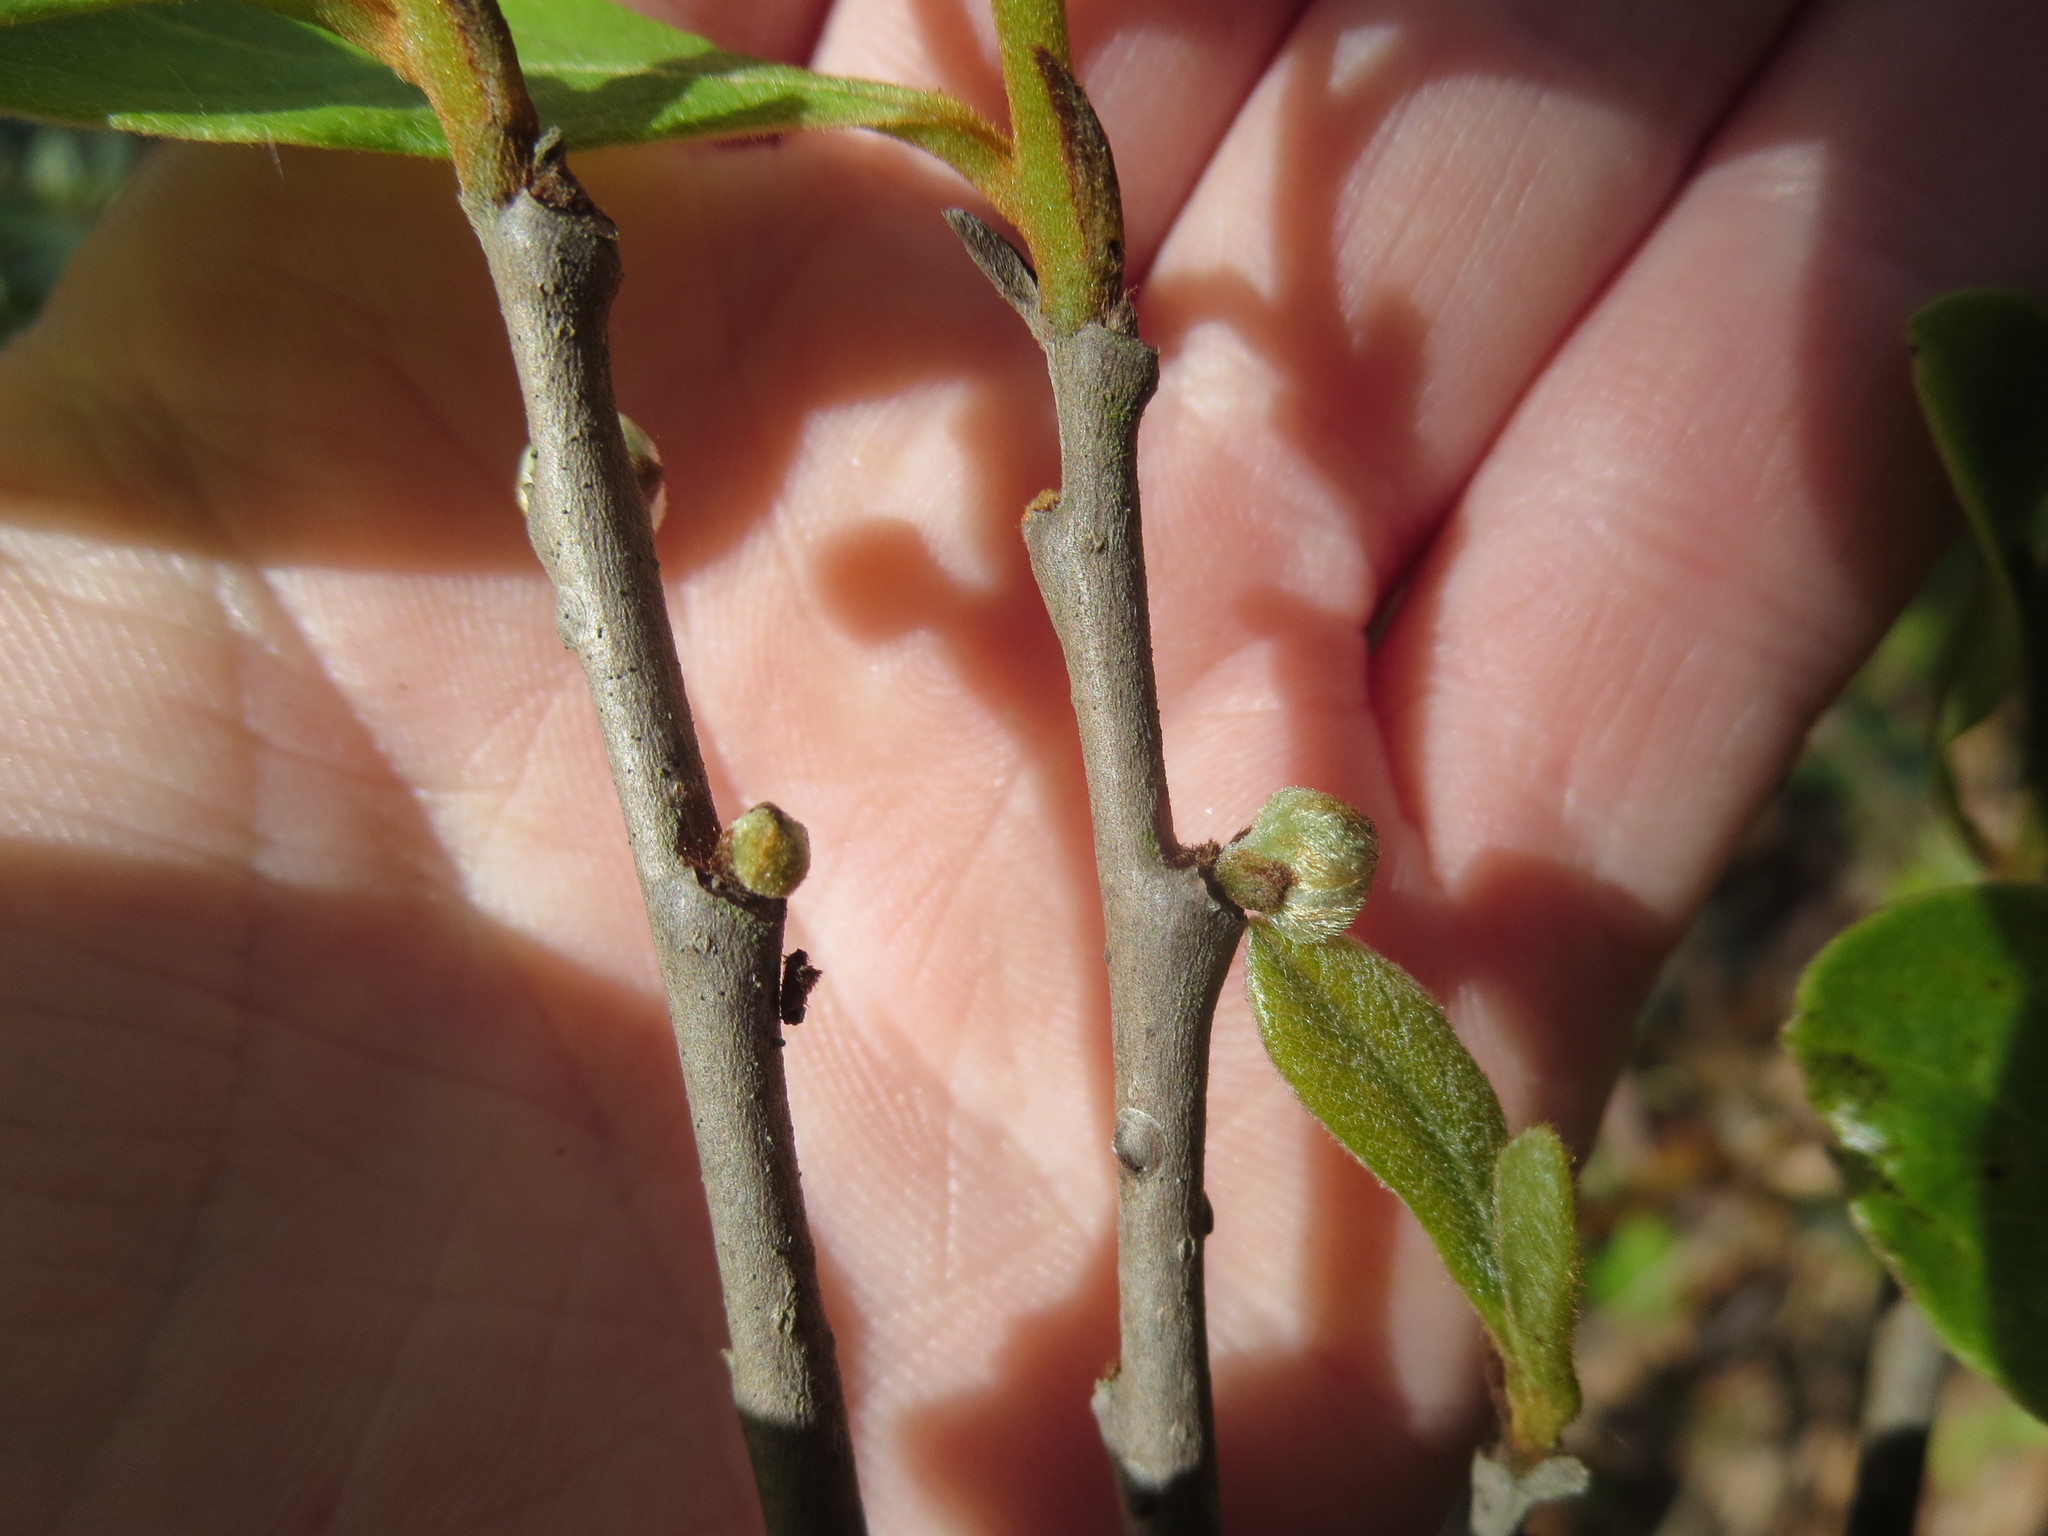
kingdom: Plantae
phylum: Tracheophyta
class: Magnoliopsida
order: Magnoliales
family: Annonaceae
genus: Asimina
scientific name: Asimina parviflora
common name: Dwarf pawpaw
